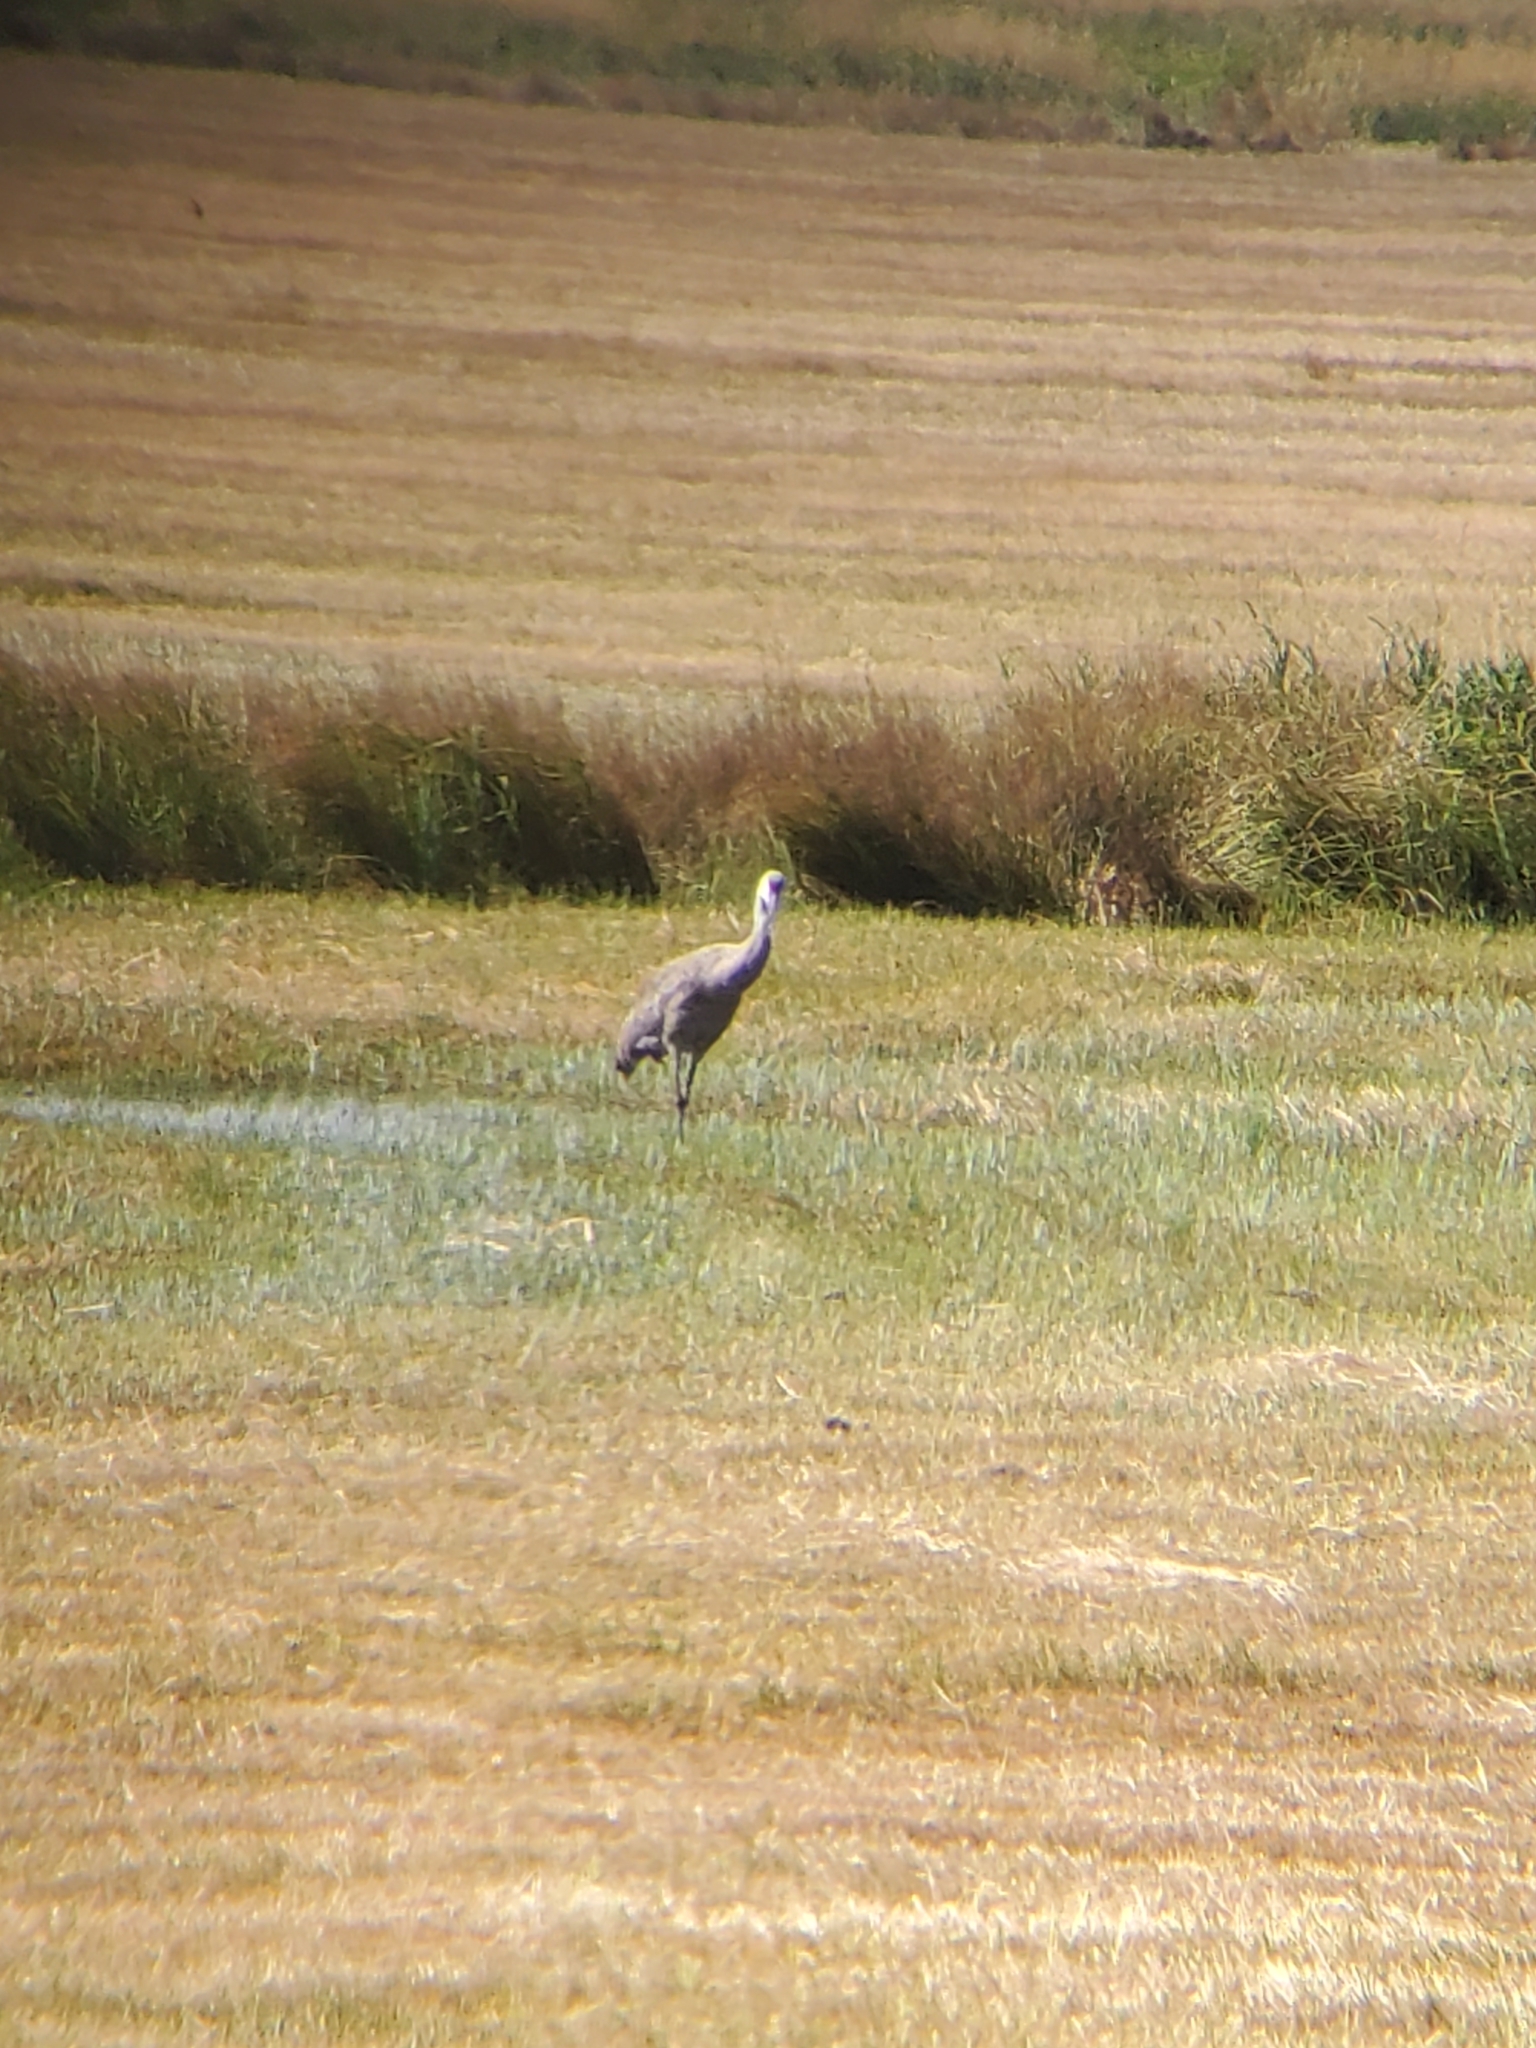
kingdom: Animalia
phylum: Chordata
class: Aves
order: Gruiformes
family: Gruidae
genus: Grus
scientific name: Grus canadensis
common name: Sandhill crane
